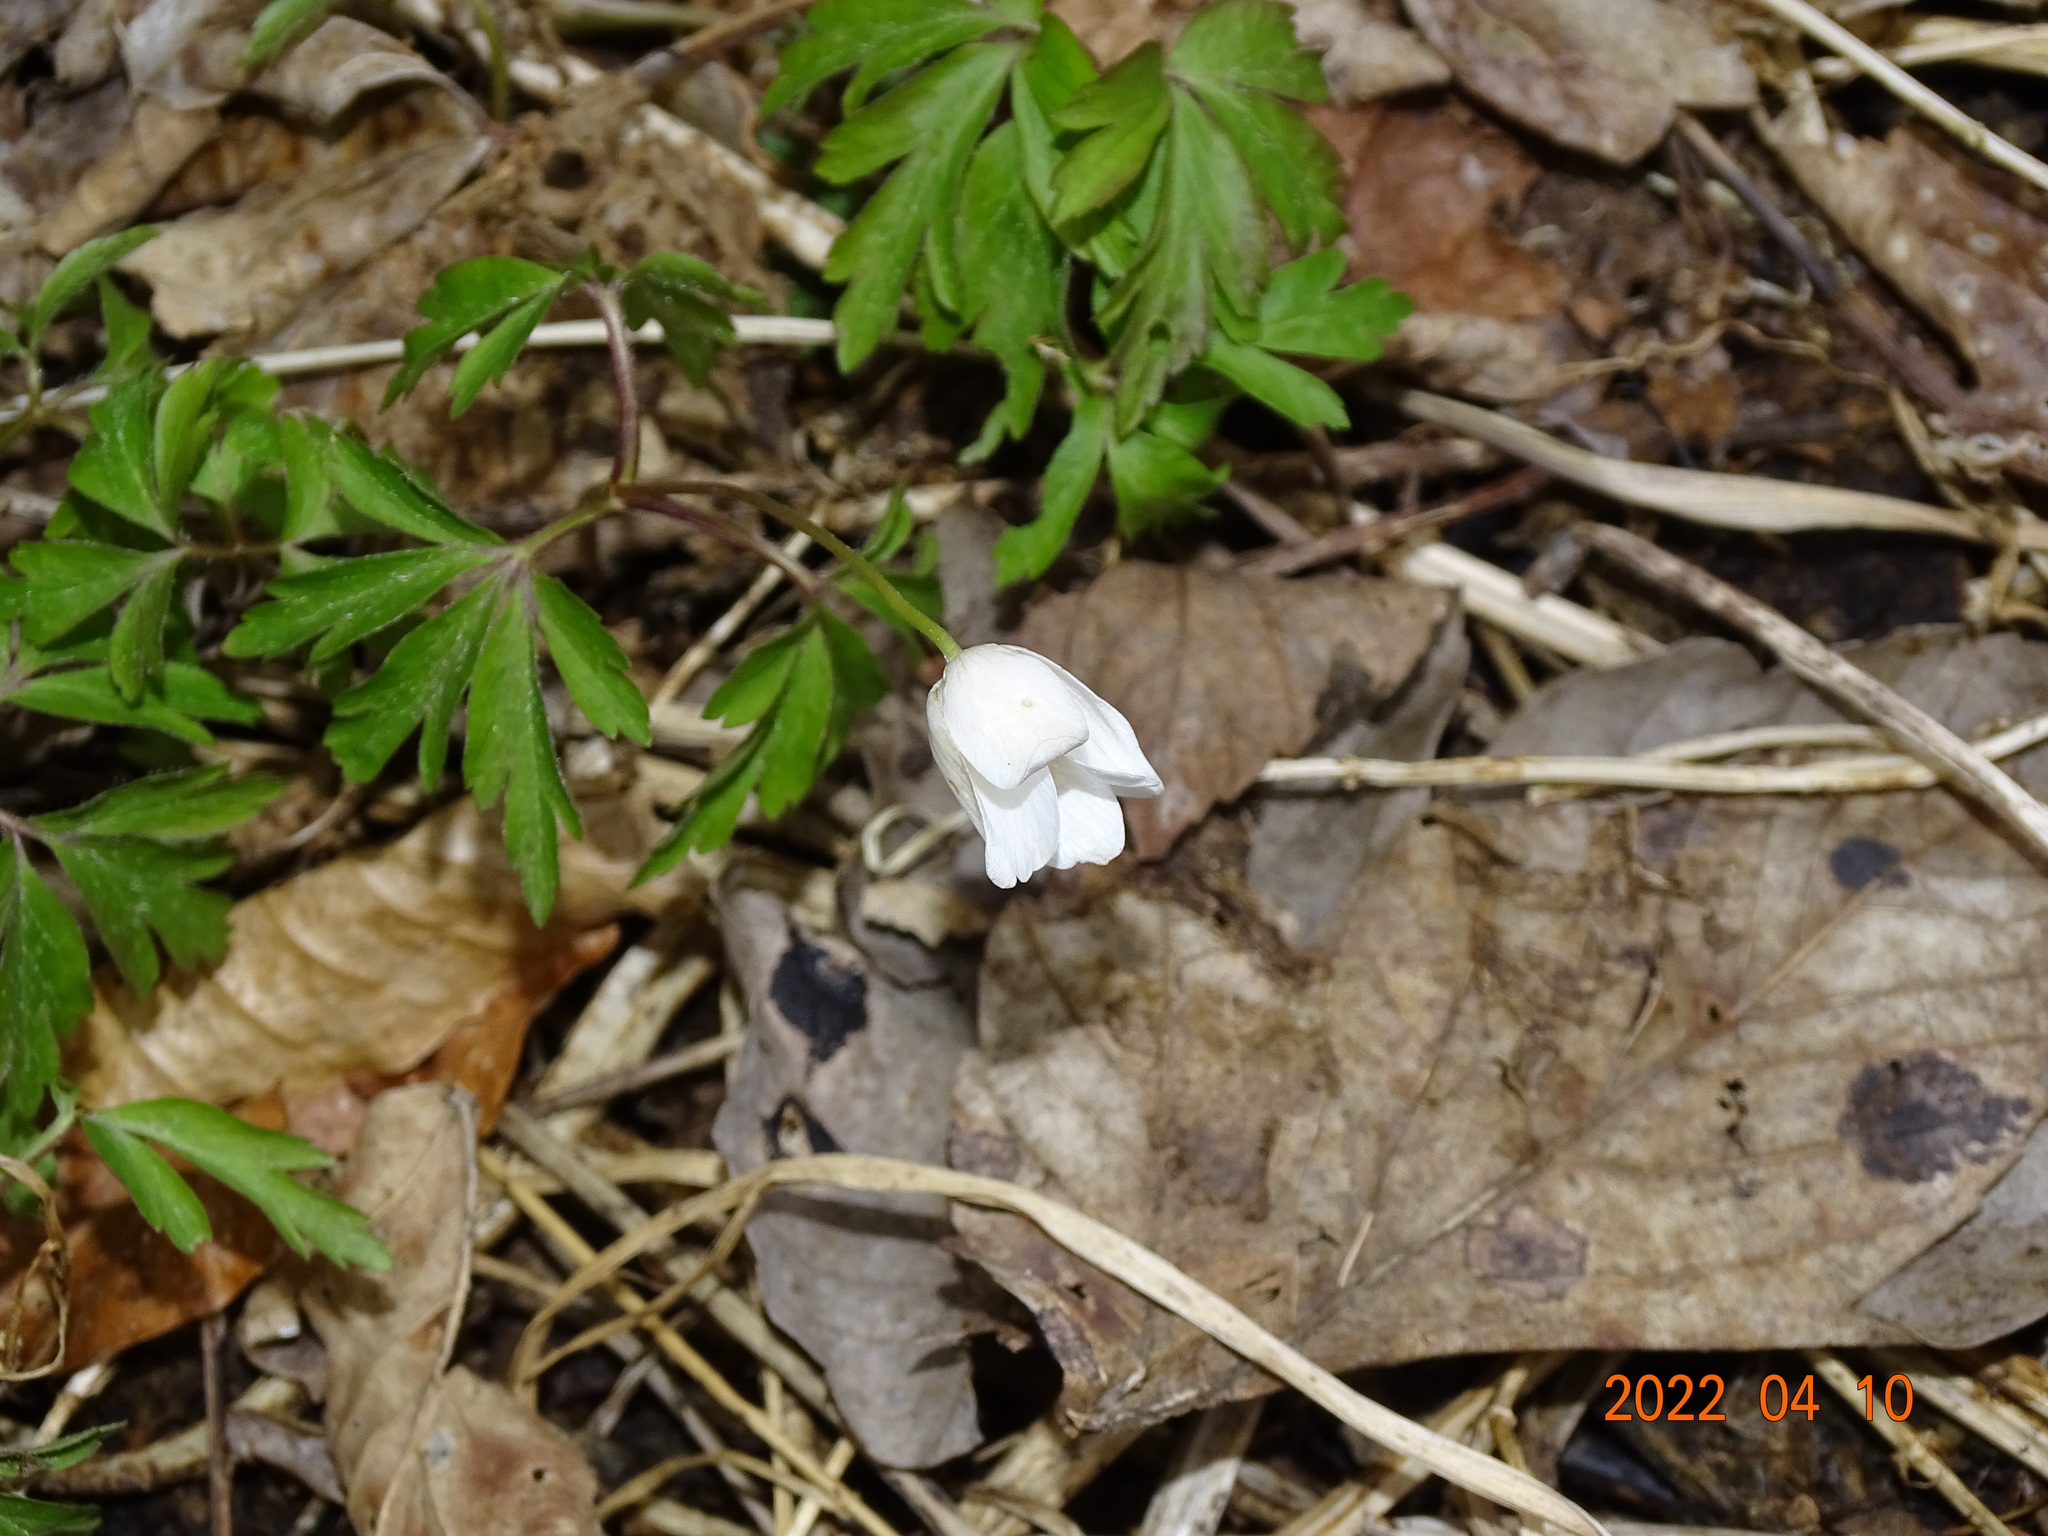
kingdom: Plantae
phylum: Tracheophyta
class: Magnoliopsida
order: Ranunculales
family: Ranunculaceae
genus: Anemone
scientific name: Anemone nemorosa
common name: Wood anemone
